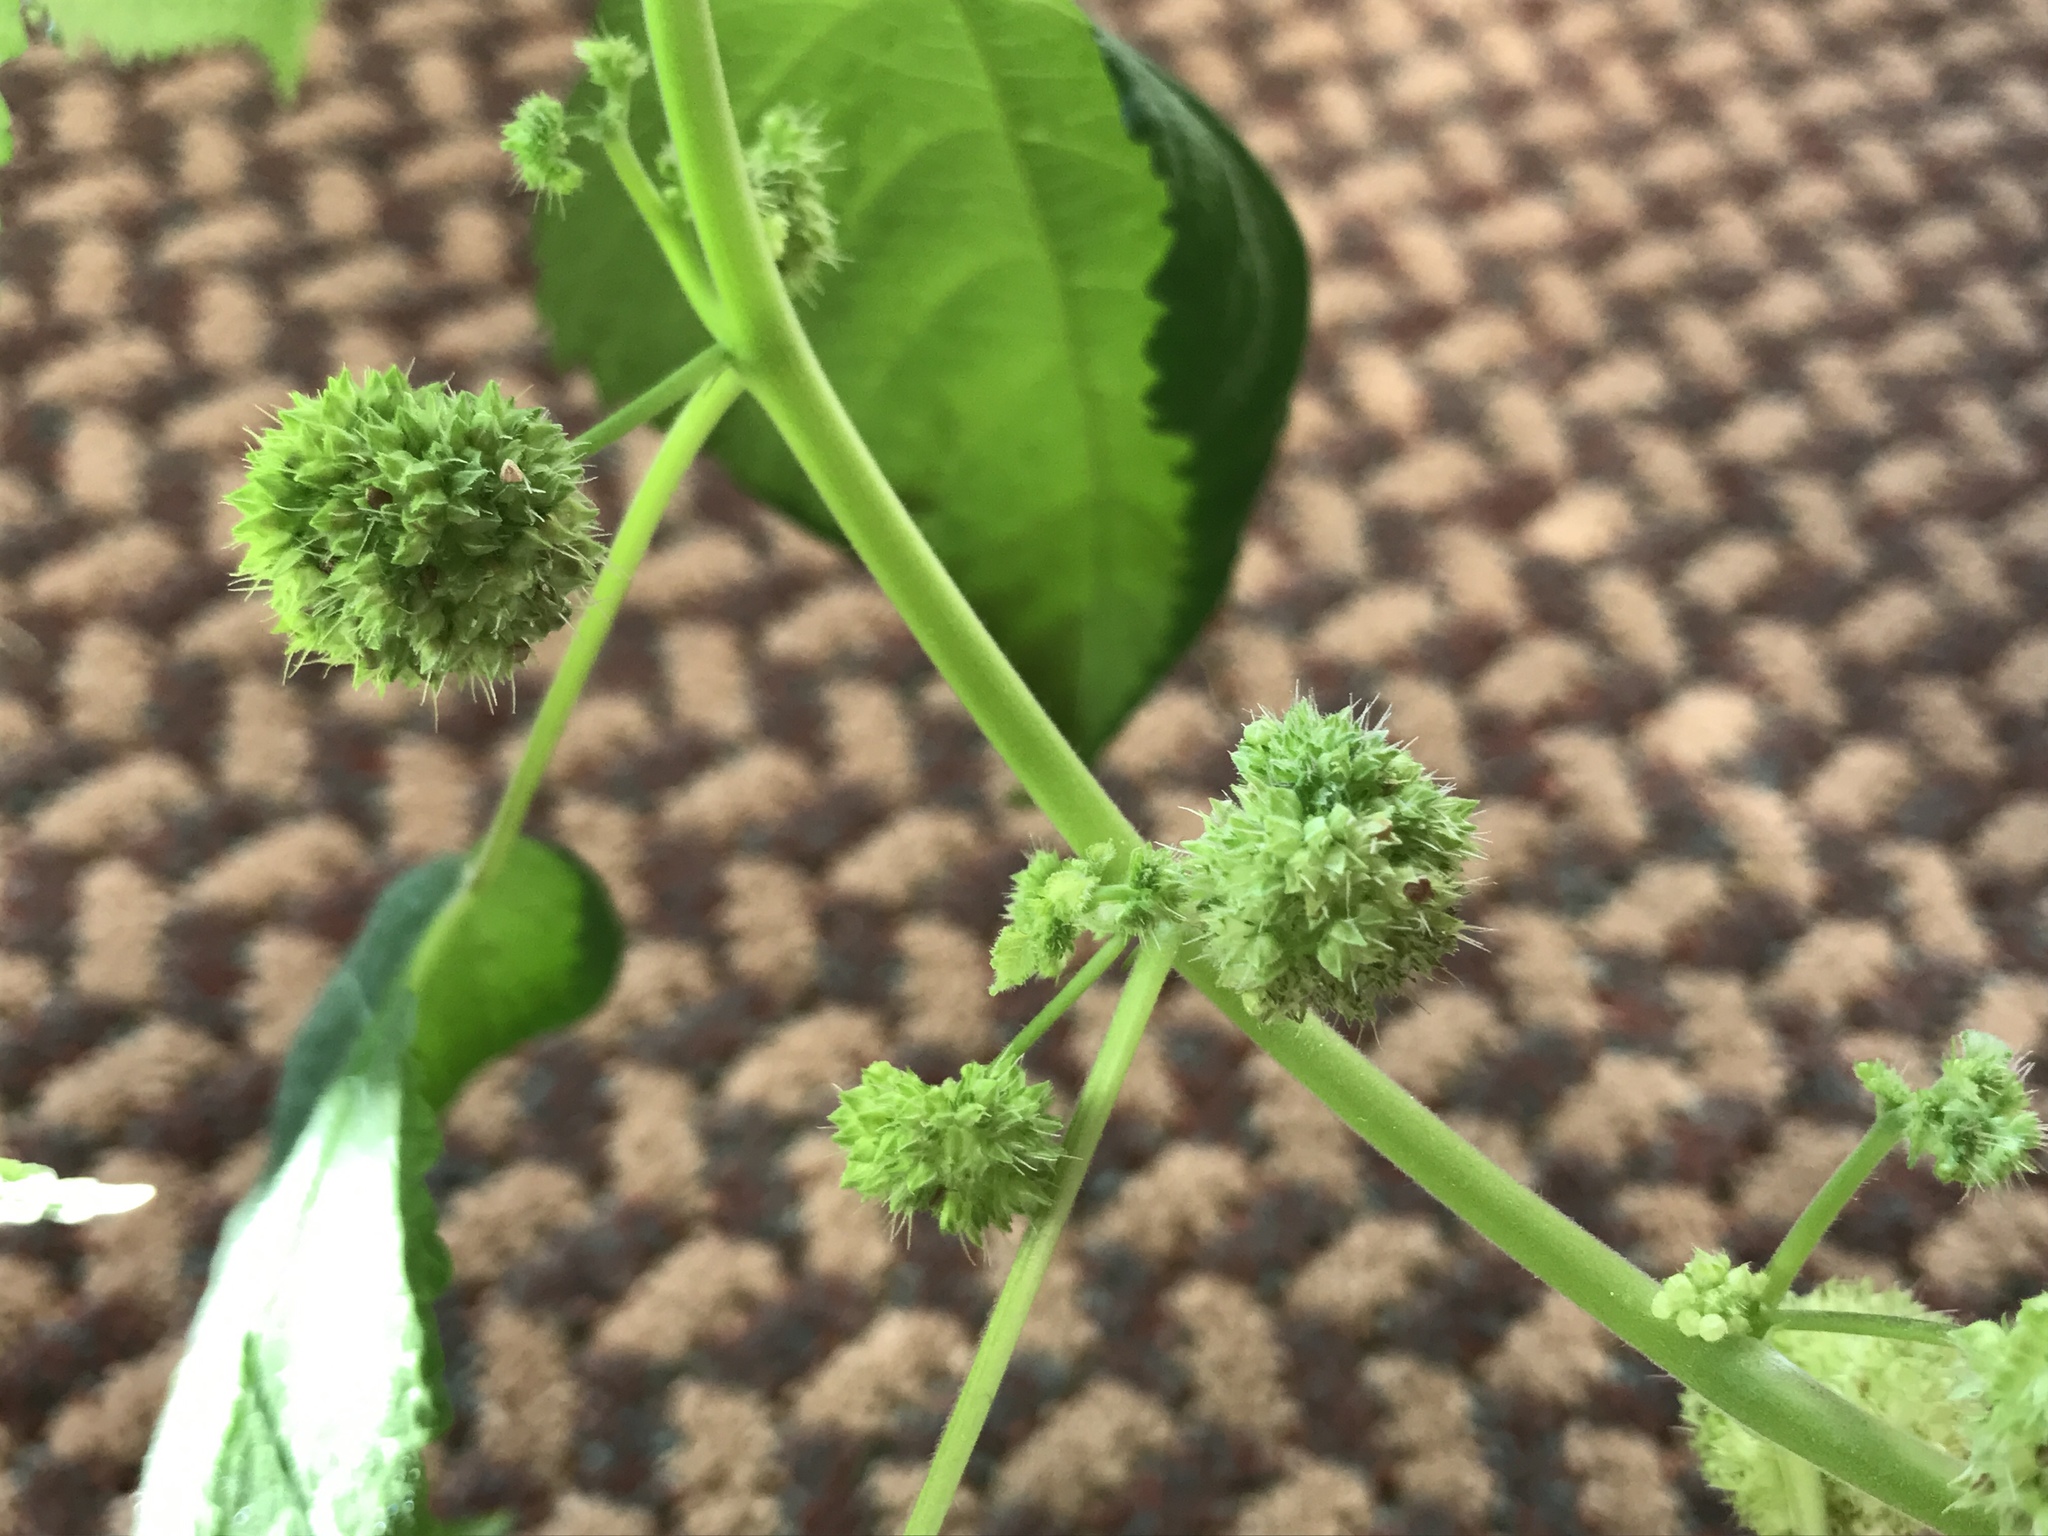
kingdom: Plantae
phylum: Tracheophyta
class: Magnoliopsida
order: Rosales
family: Moraceae
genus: Fatoua
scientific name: Fatoua villosa
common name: Hairy crabweed
